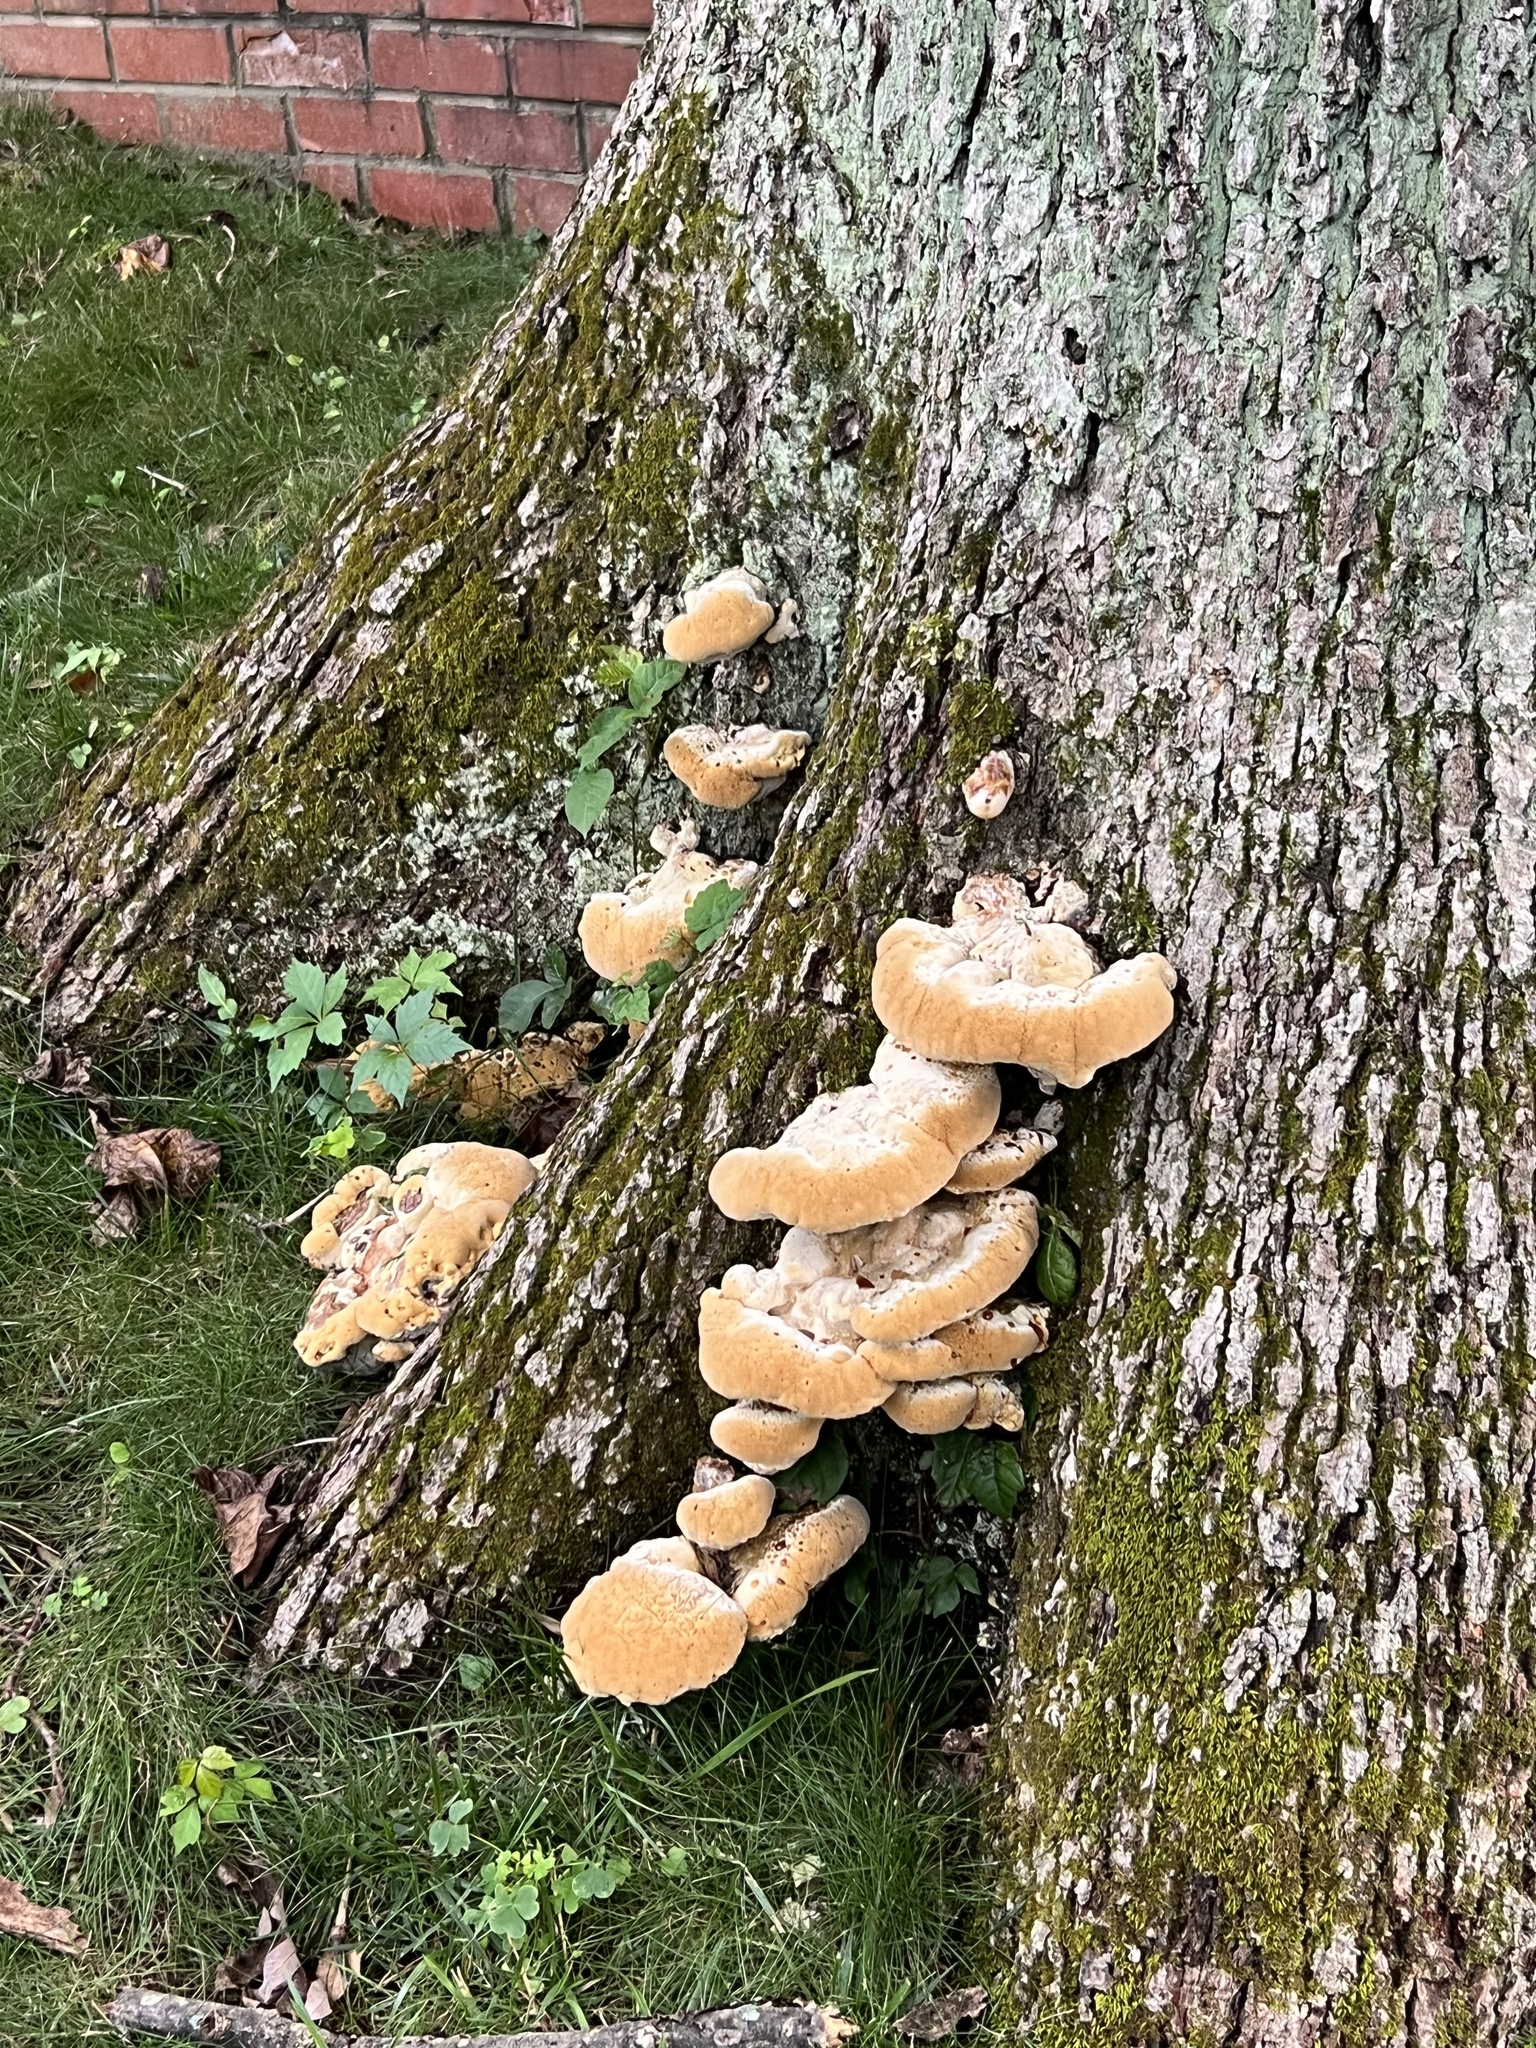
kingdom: Fungi
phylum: Basidiomycota
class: Agaricomycetes
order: Hymenochaetales
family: Hymenochaetaceae
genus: Pseudoinonotus
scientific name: Pseudoinonotus dryadeus
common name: Oak bracket
